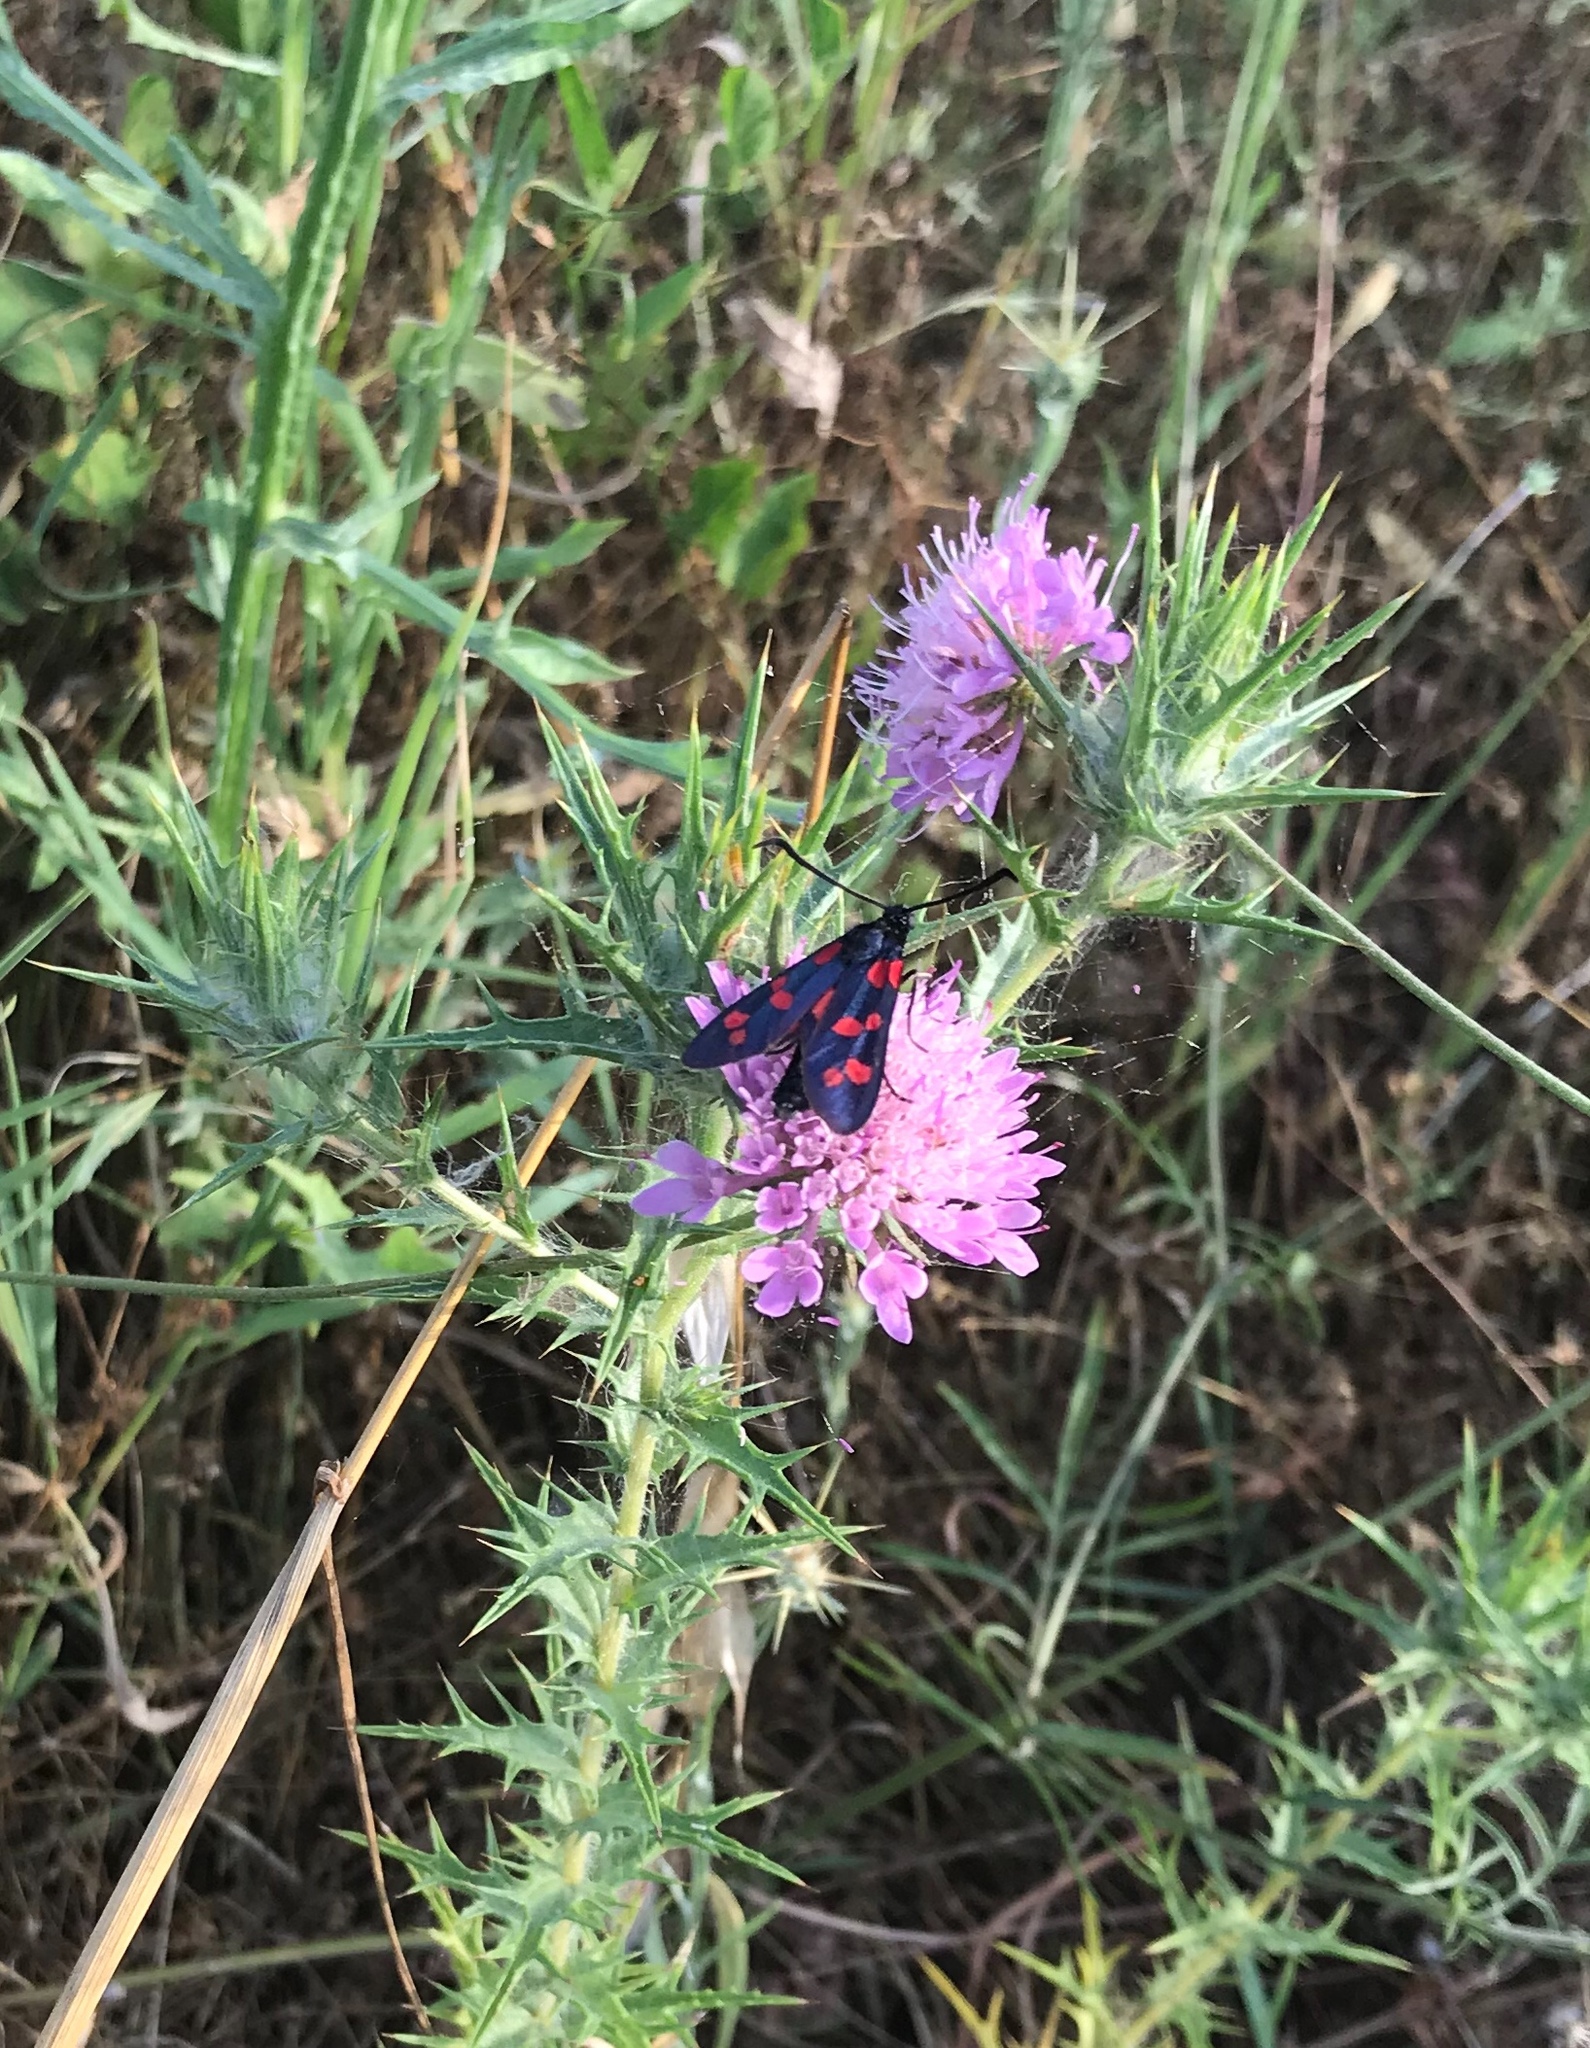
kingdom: Animalia
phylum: Arthropoda
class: Insecta
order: Lepidoptera
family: Zygaenidae
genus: Zygaena
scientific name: Zygaena filipendulae
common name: Six-spot burnet
